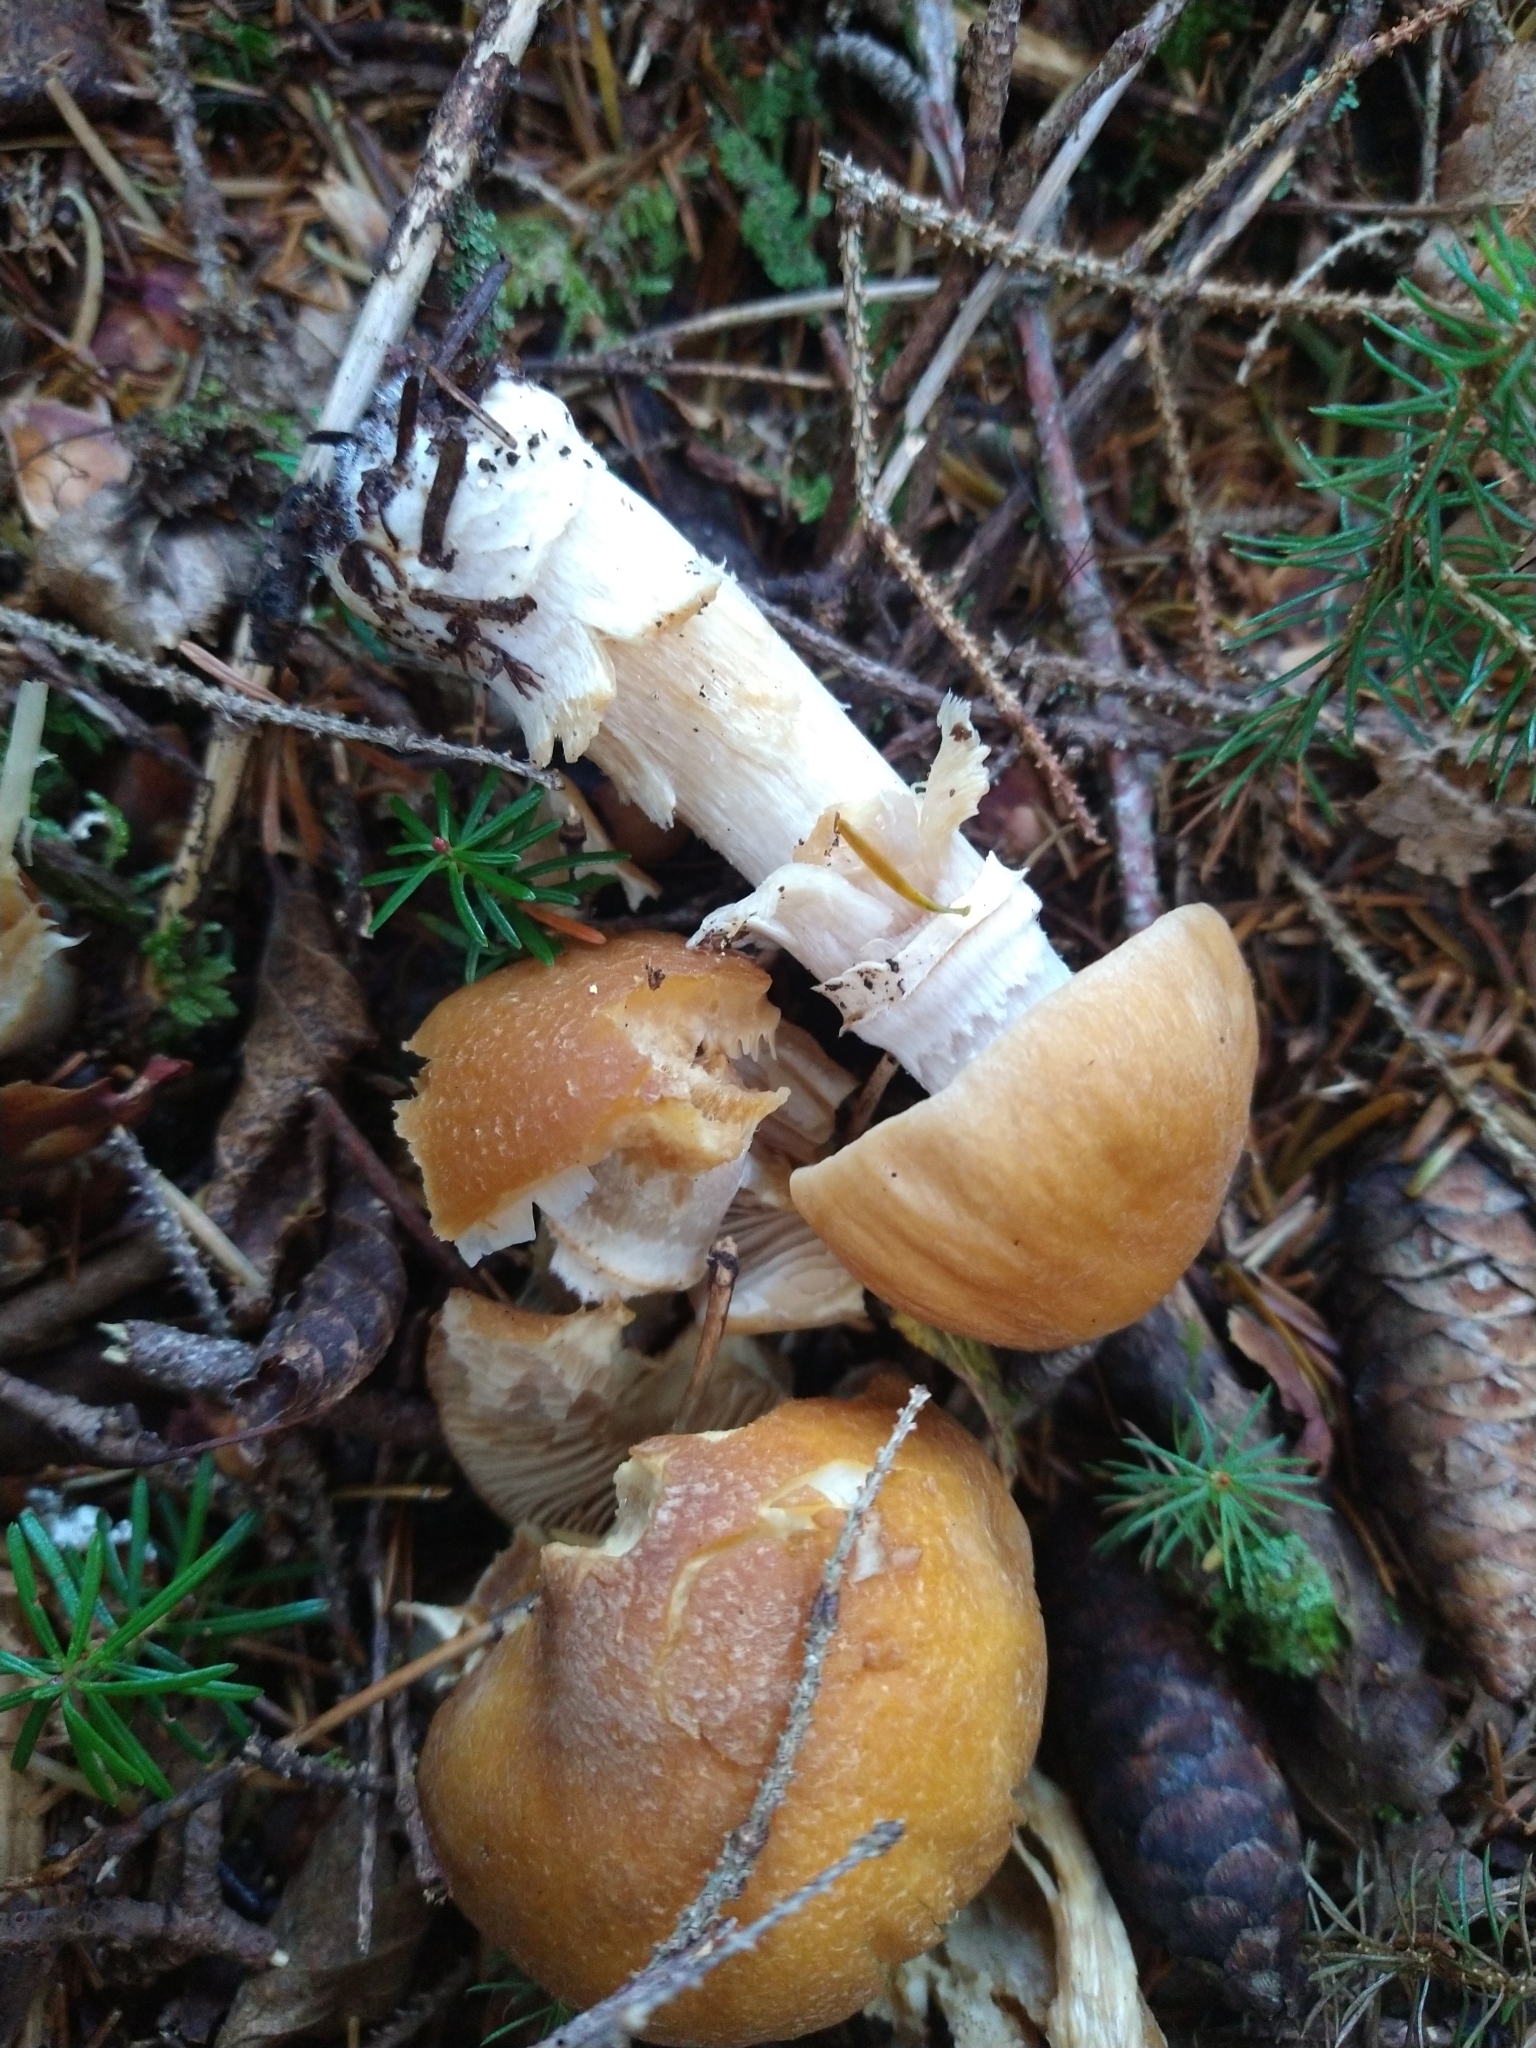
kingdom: Fungi
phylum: Basidiomycota
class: Agaricomycetes
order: Agaricales
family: Cortinariaceae
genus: Cortinarius
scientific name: Cortinarius caperatus
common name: The gypsy
